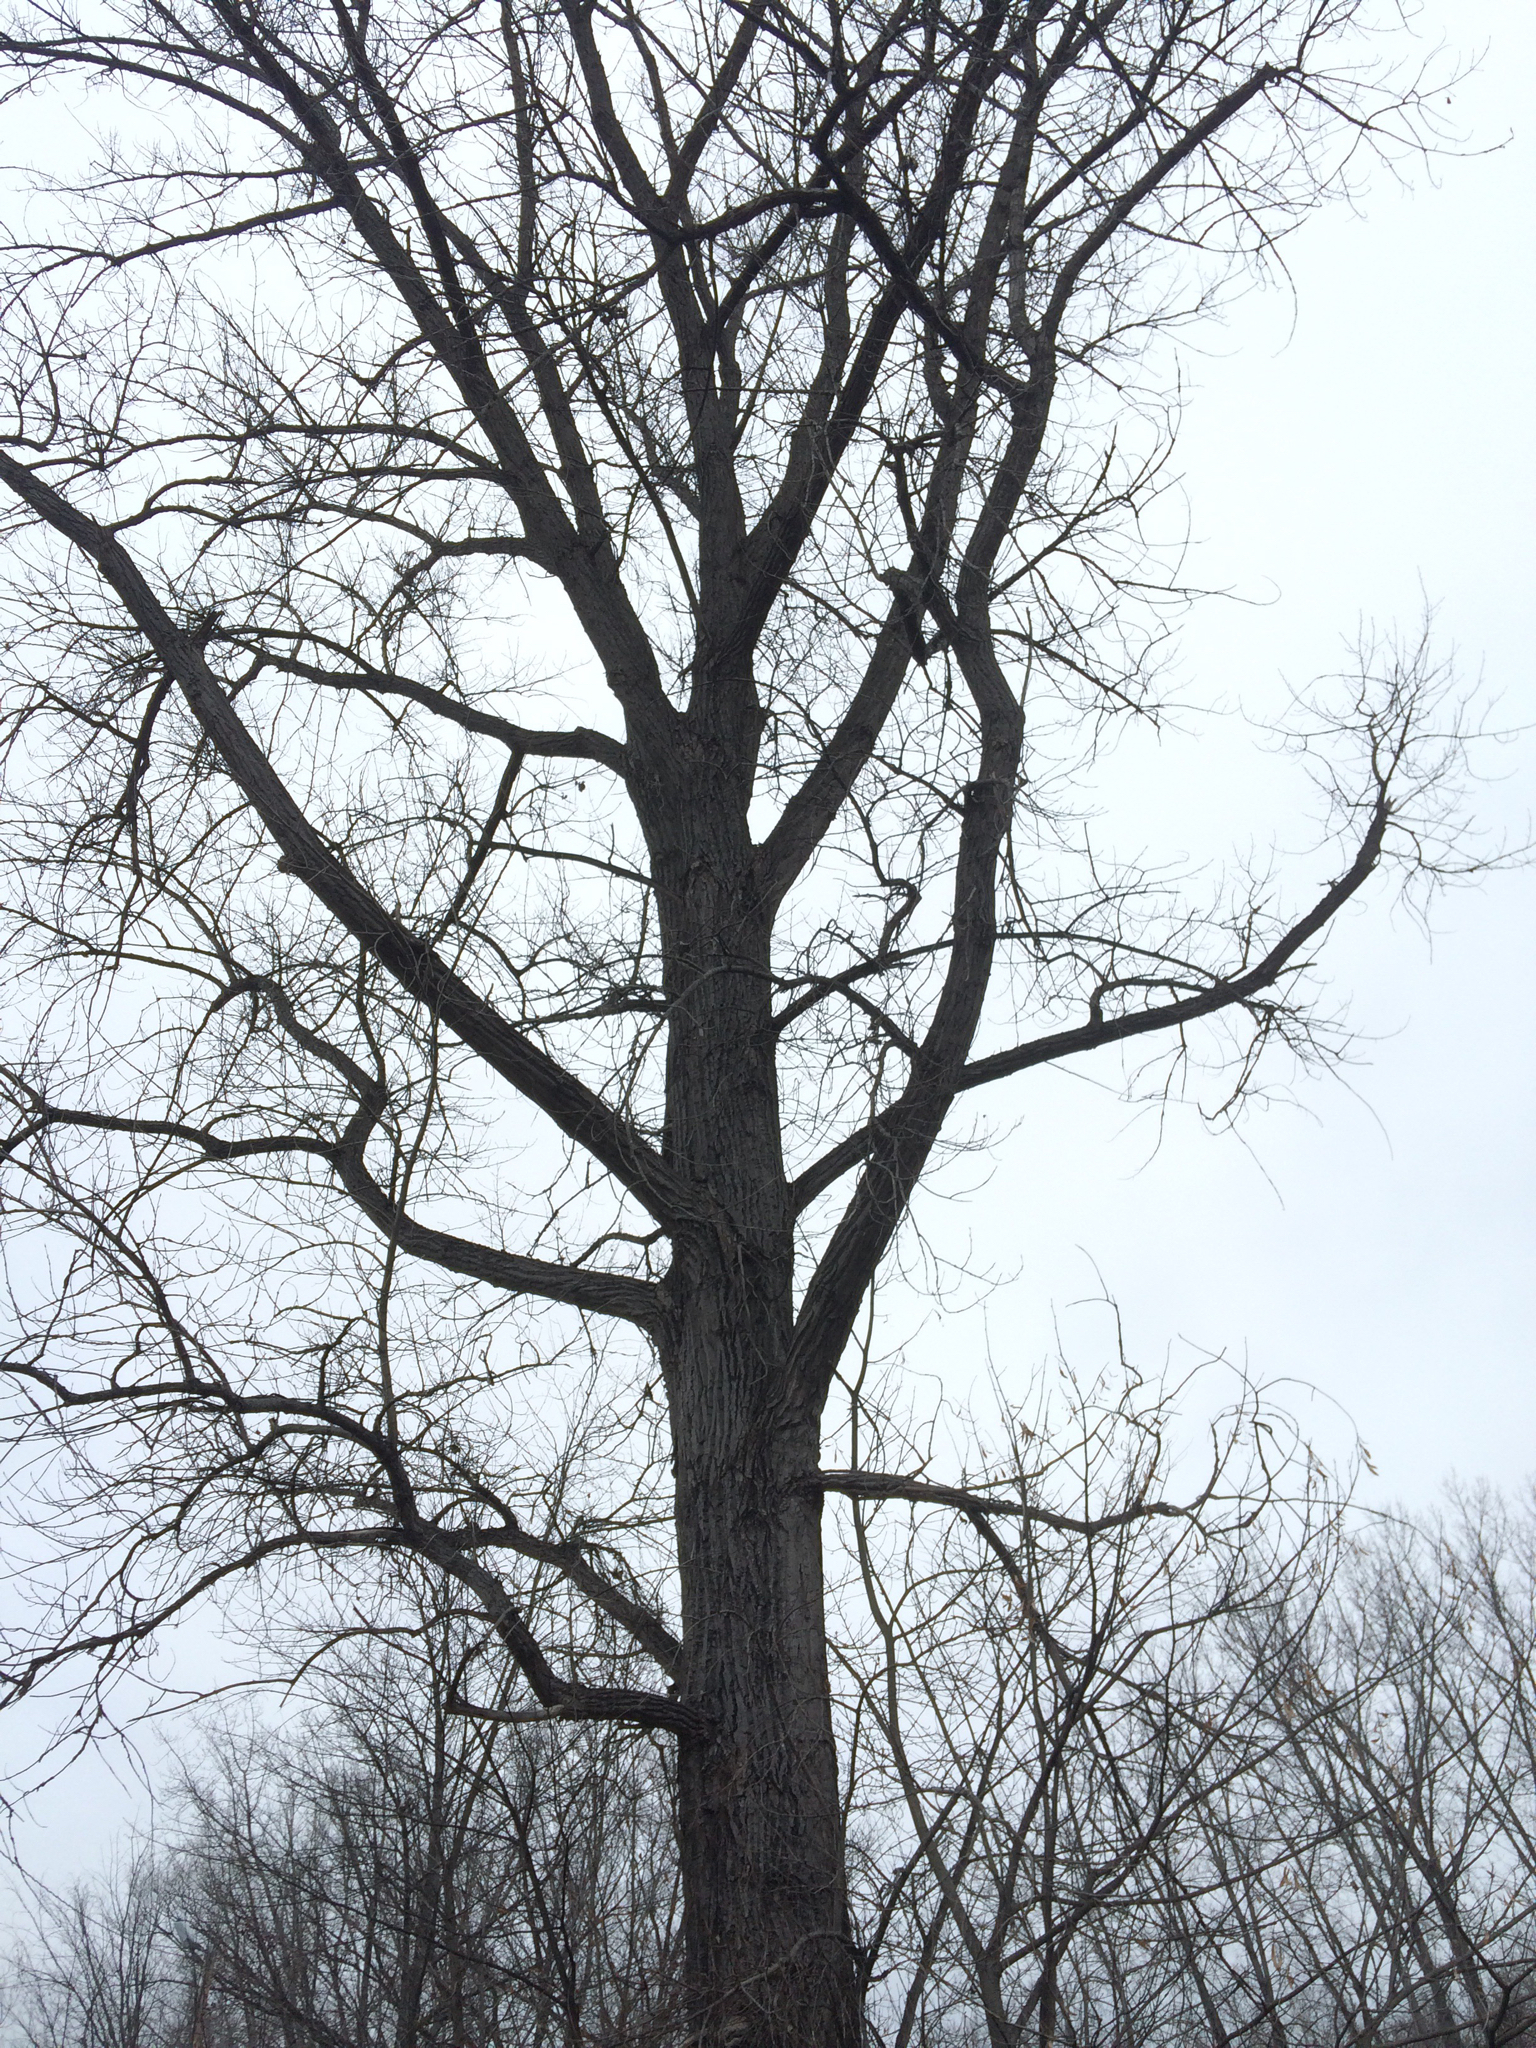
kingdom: Plantae
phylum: Tracheophyta
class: Magnoliopsida
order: Malpighiales
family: Salicaceae
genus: Populus
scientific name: Populus deltoides
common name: Eastern cottonwood
